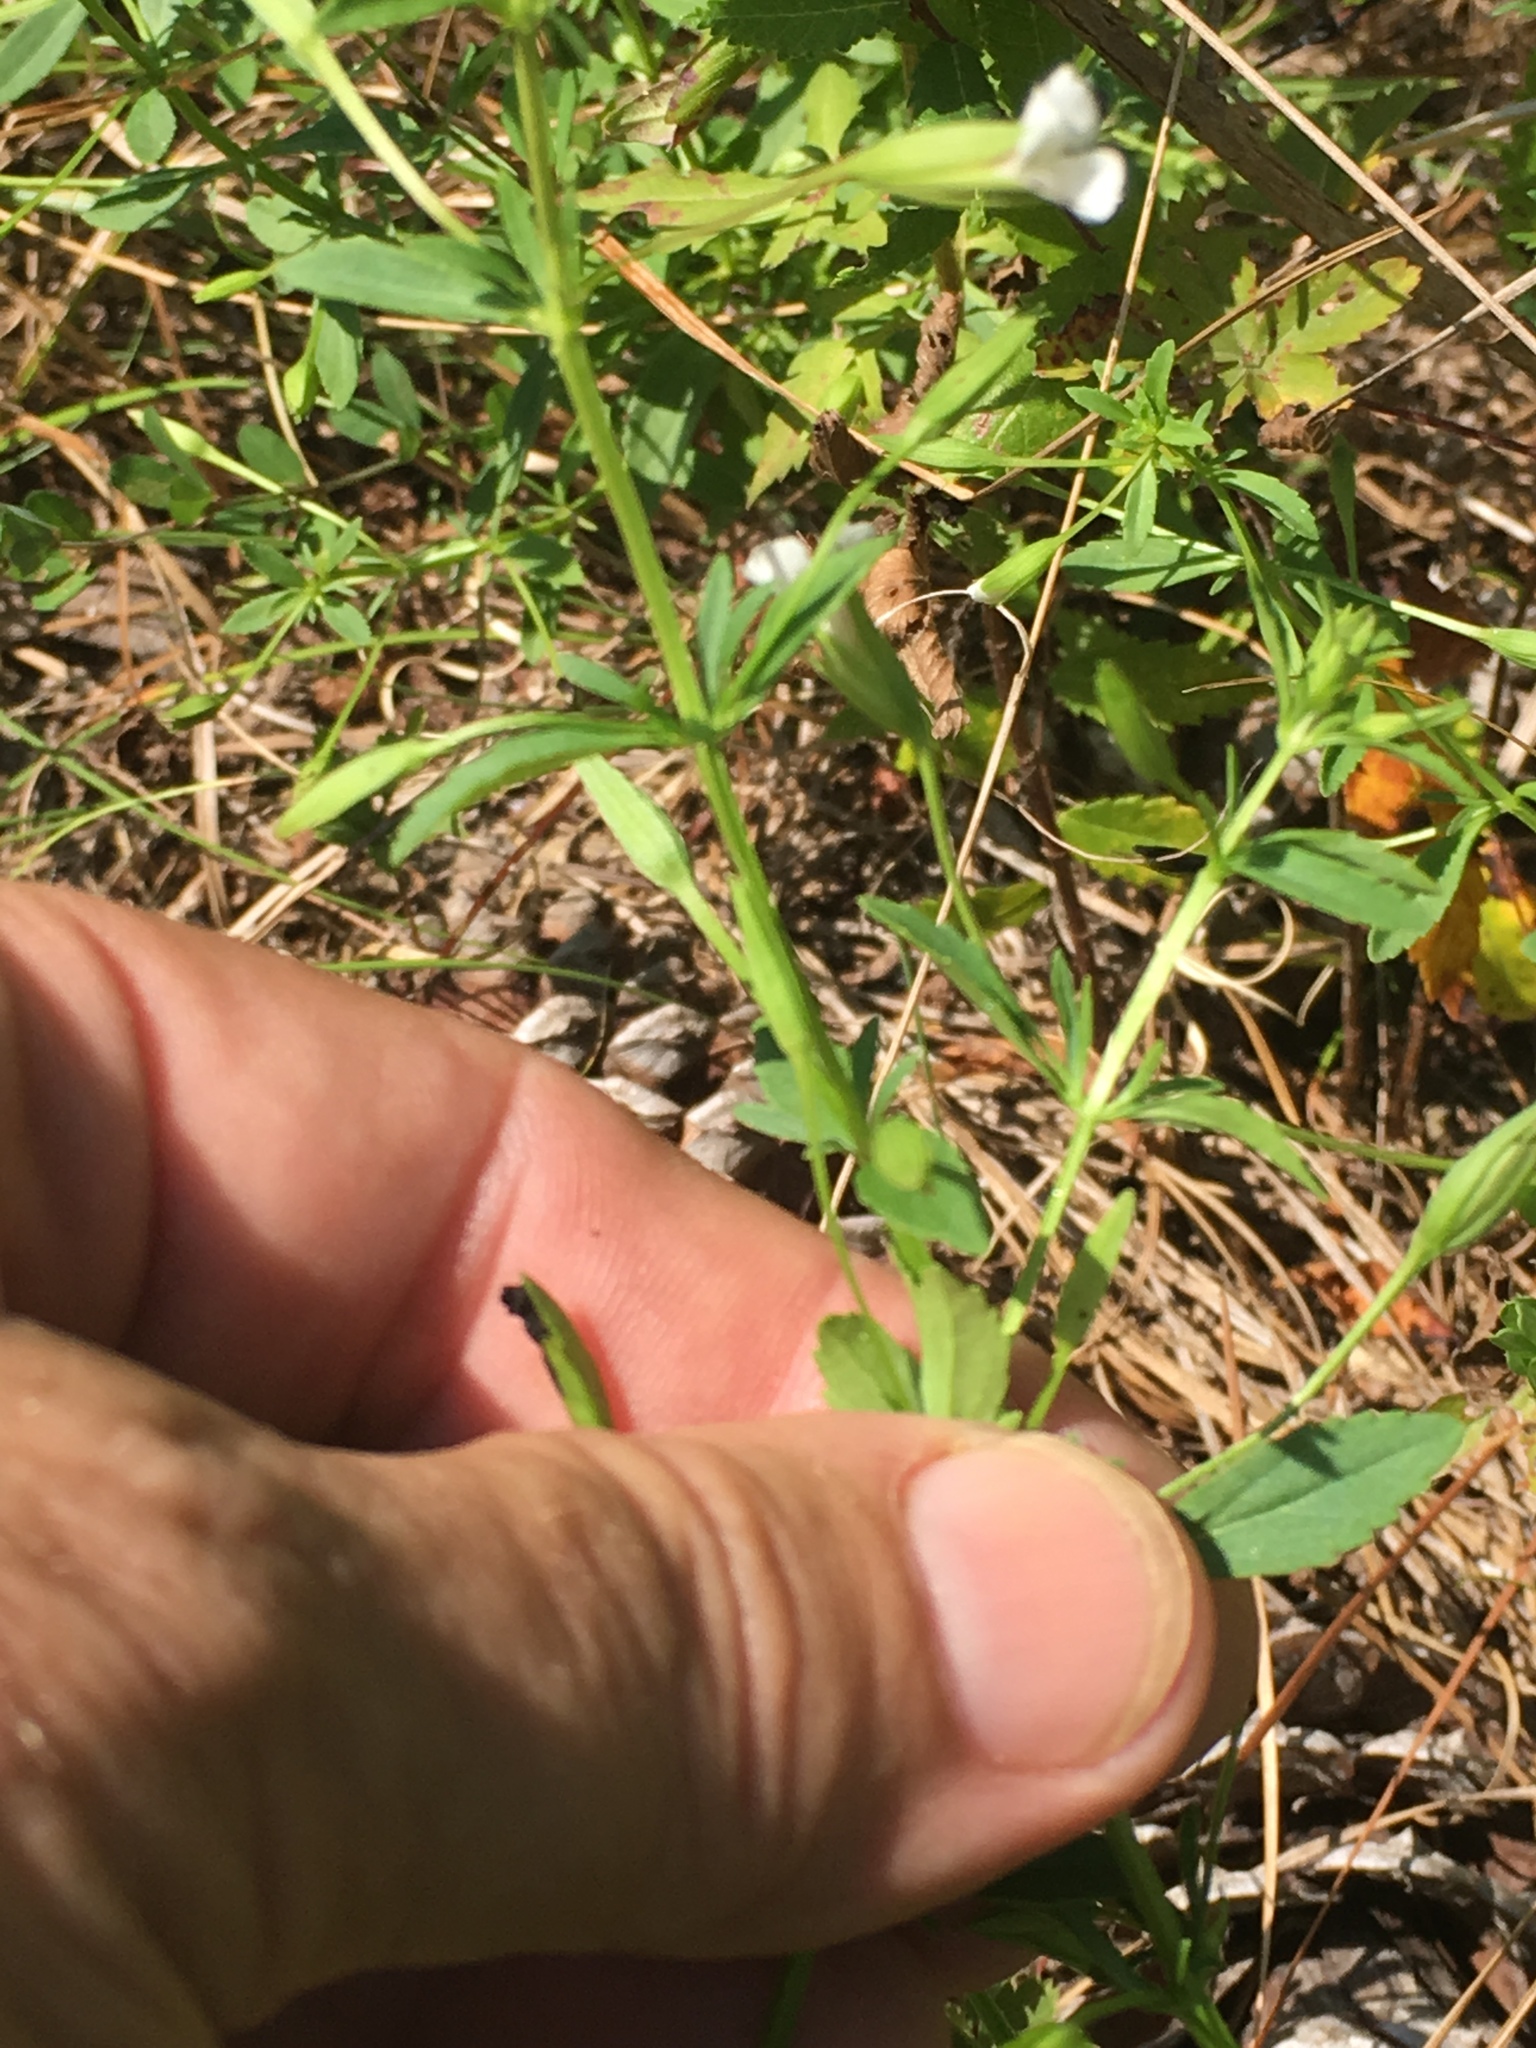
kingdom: Plantae
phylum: Tracheophyta
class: Magnoliopsida
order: Lamiales
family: Plantaginaceae
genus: Mecardonia
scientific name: Mecardonia acuminata
